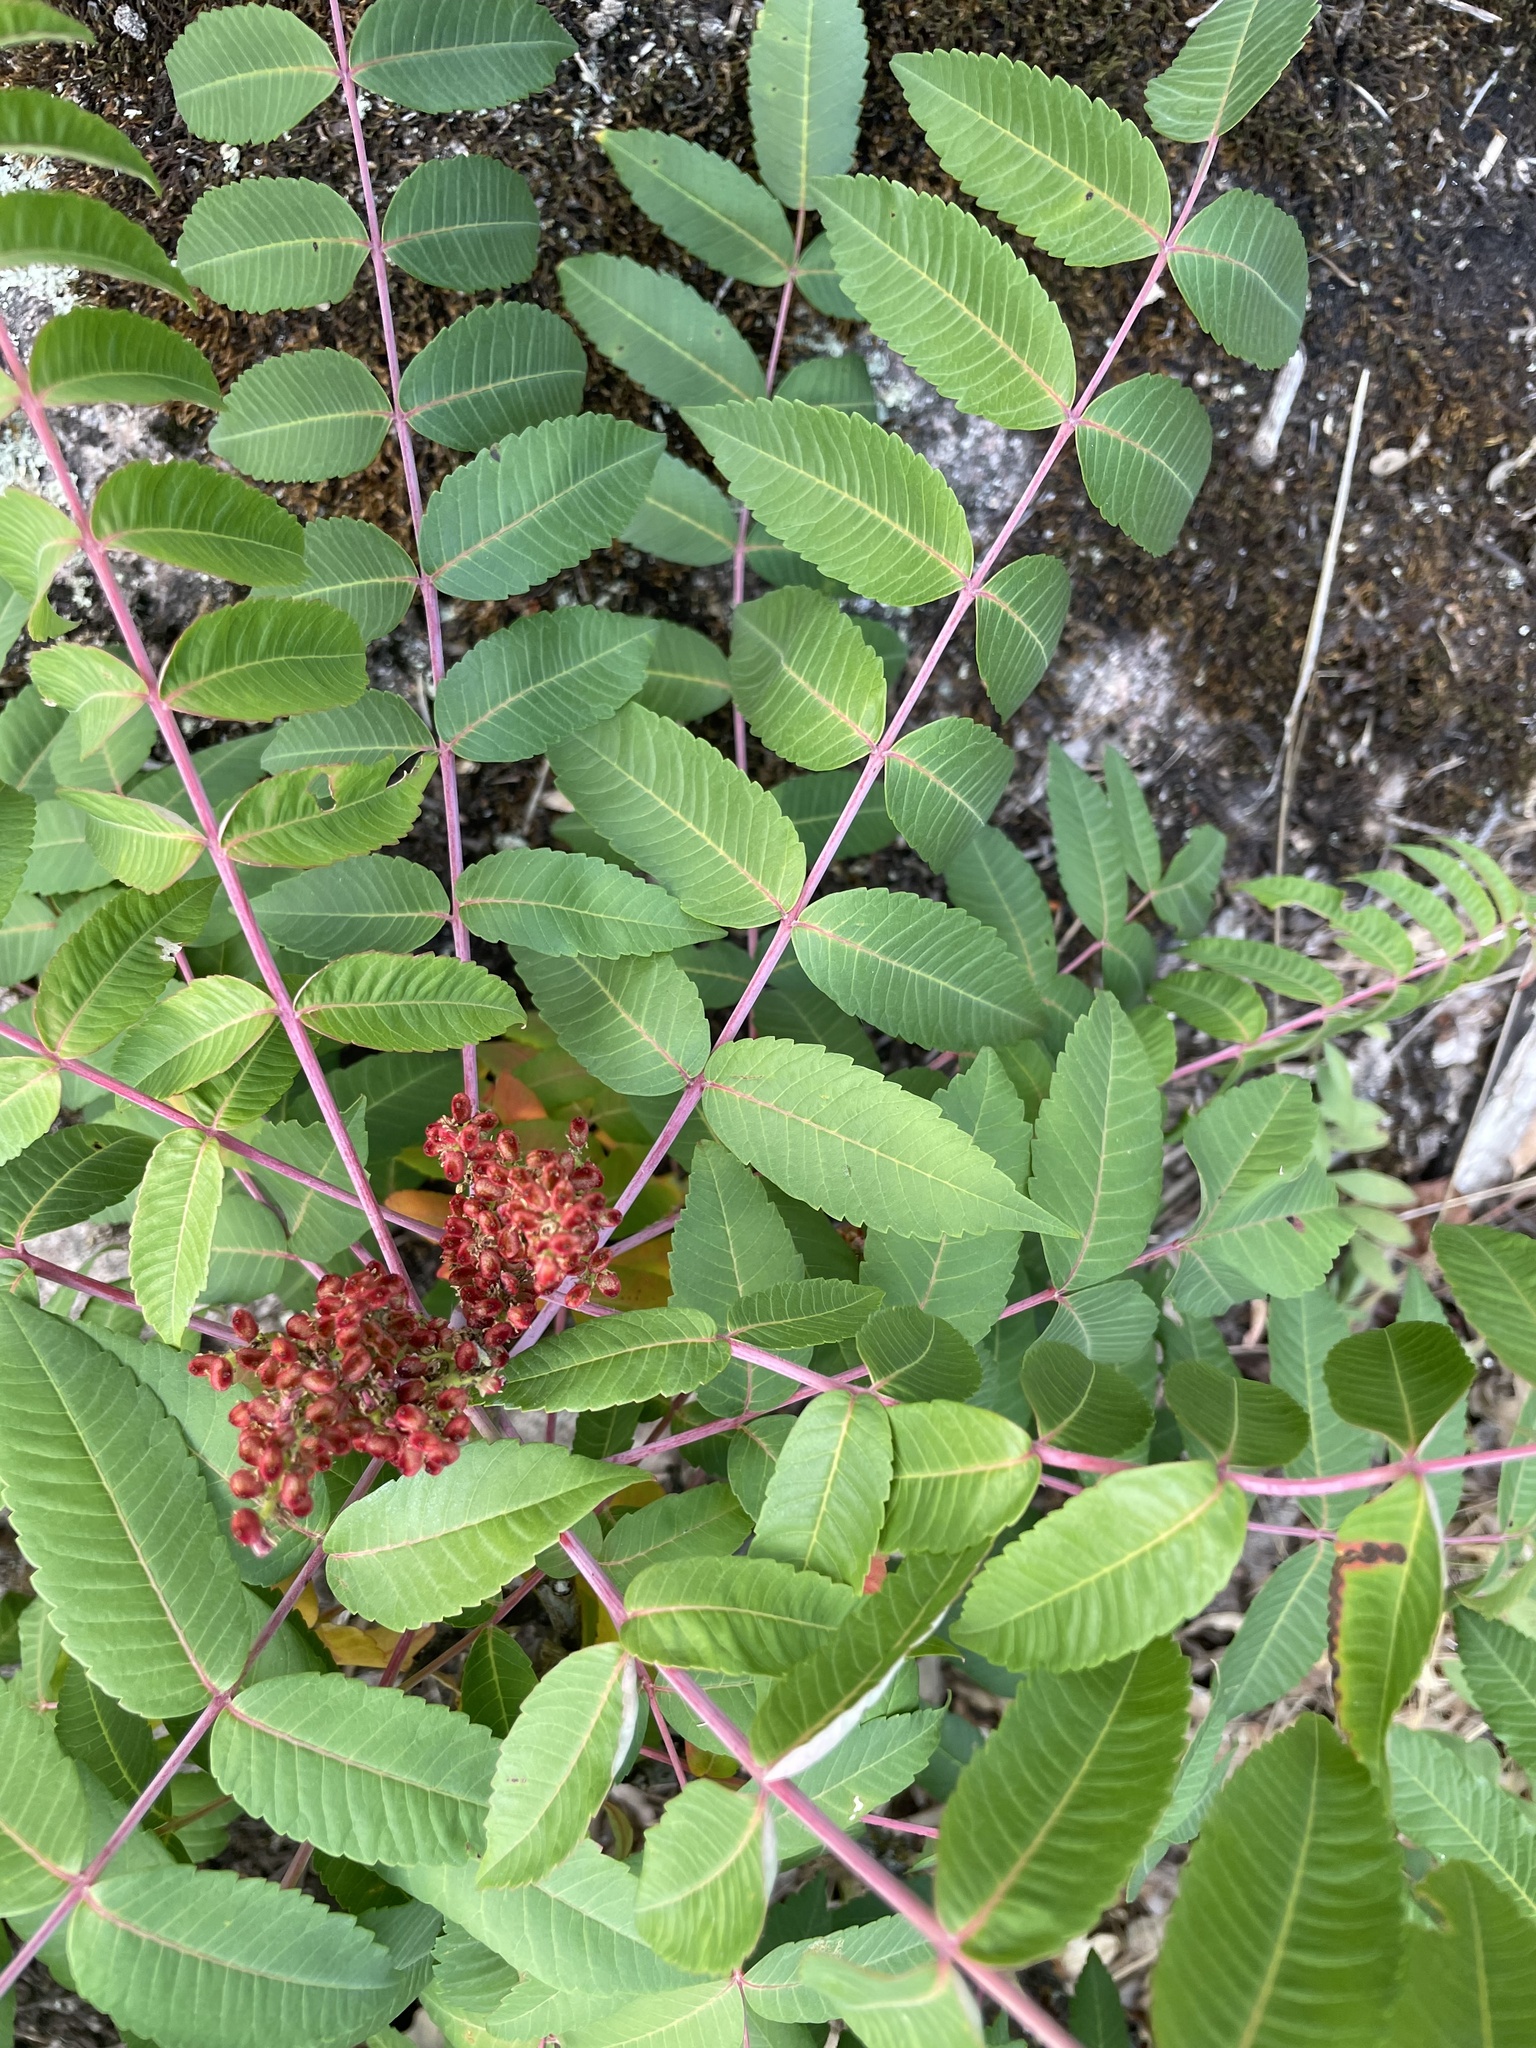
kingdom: Plantae
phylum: Tracheophyta
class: Magnoliopsida
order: Sapindales
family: Anacardiaceae
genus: Rhus
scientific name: Rhus glabra
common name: Scarlet sumac
